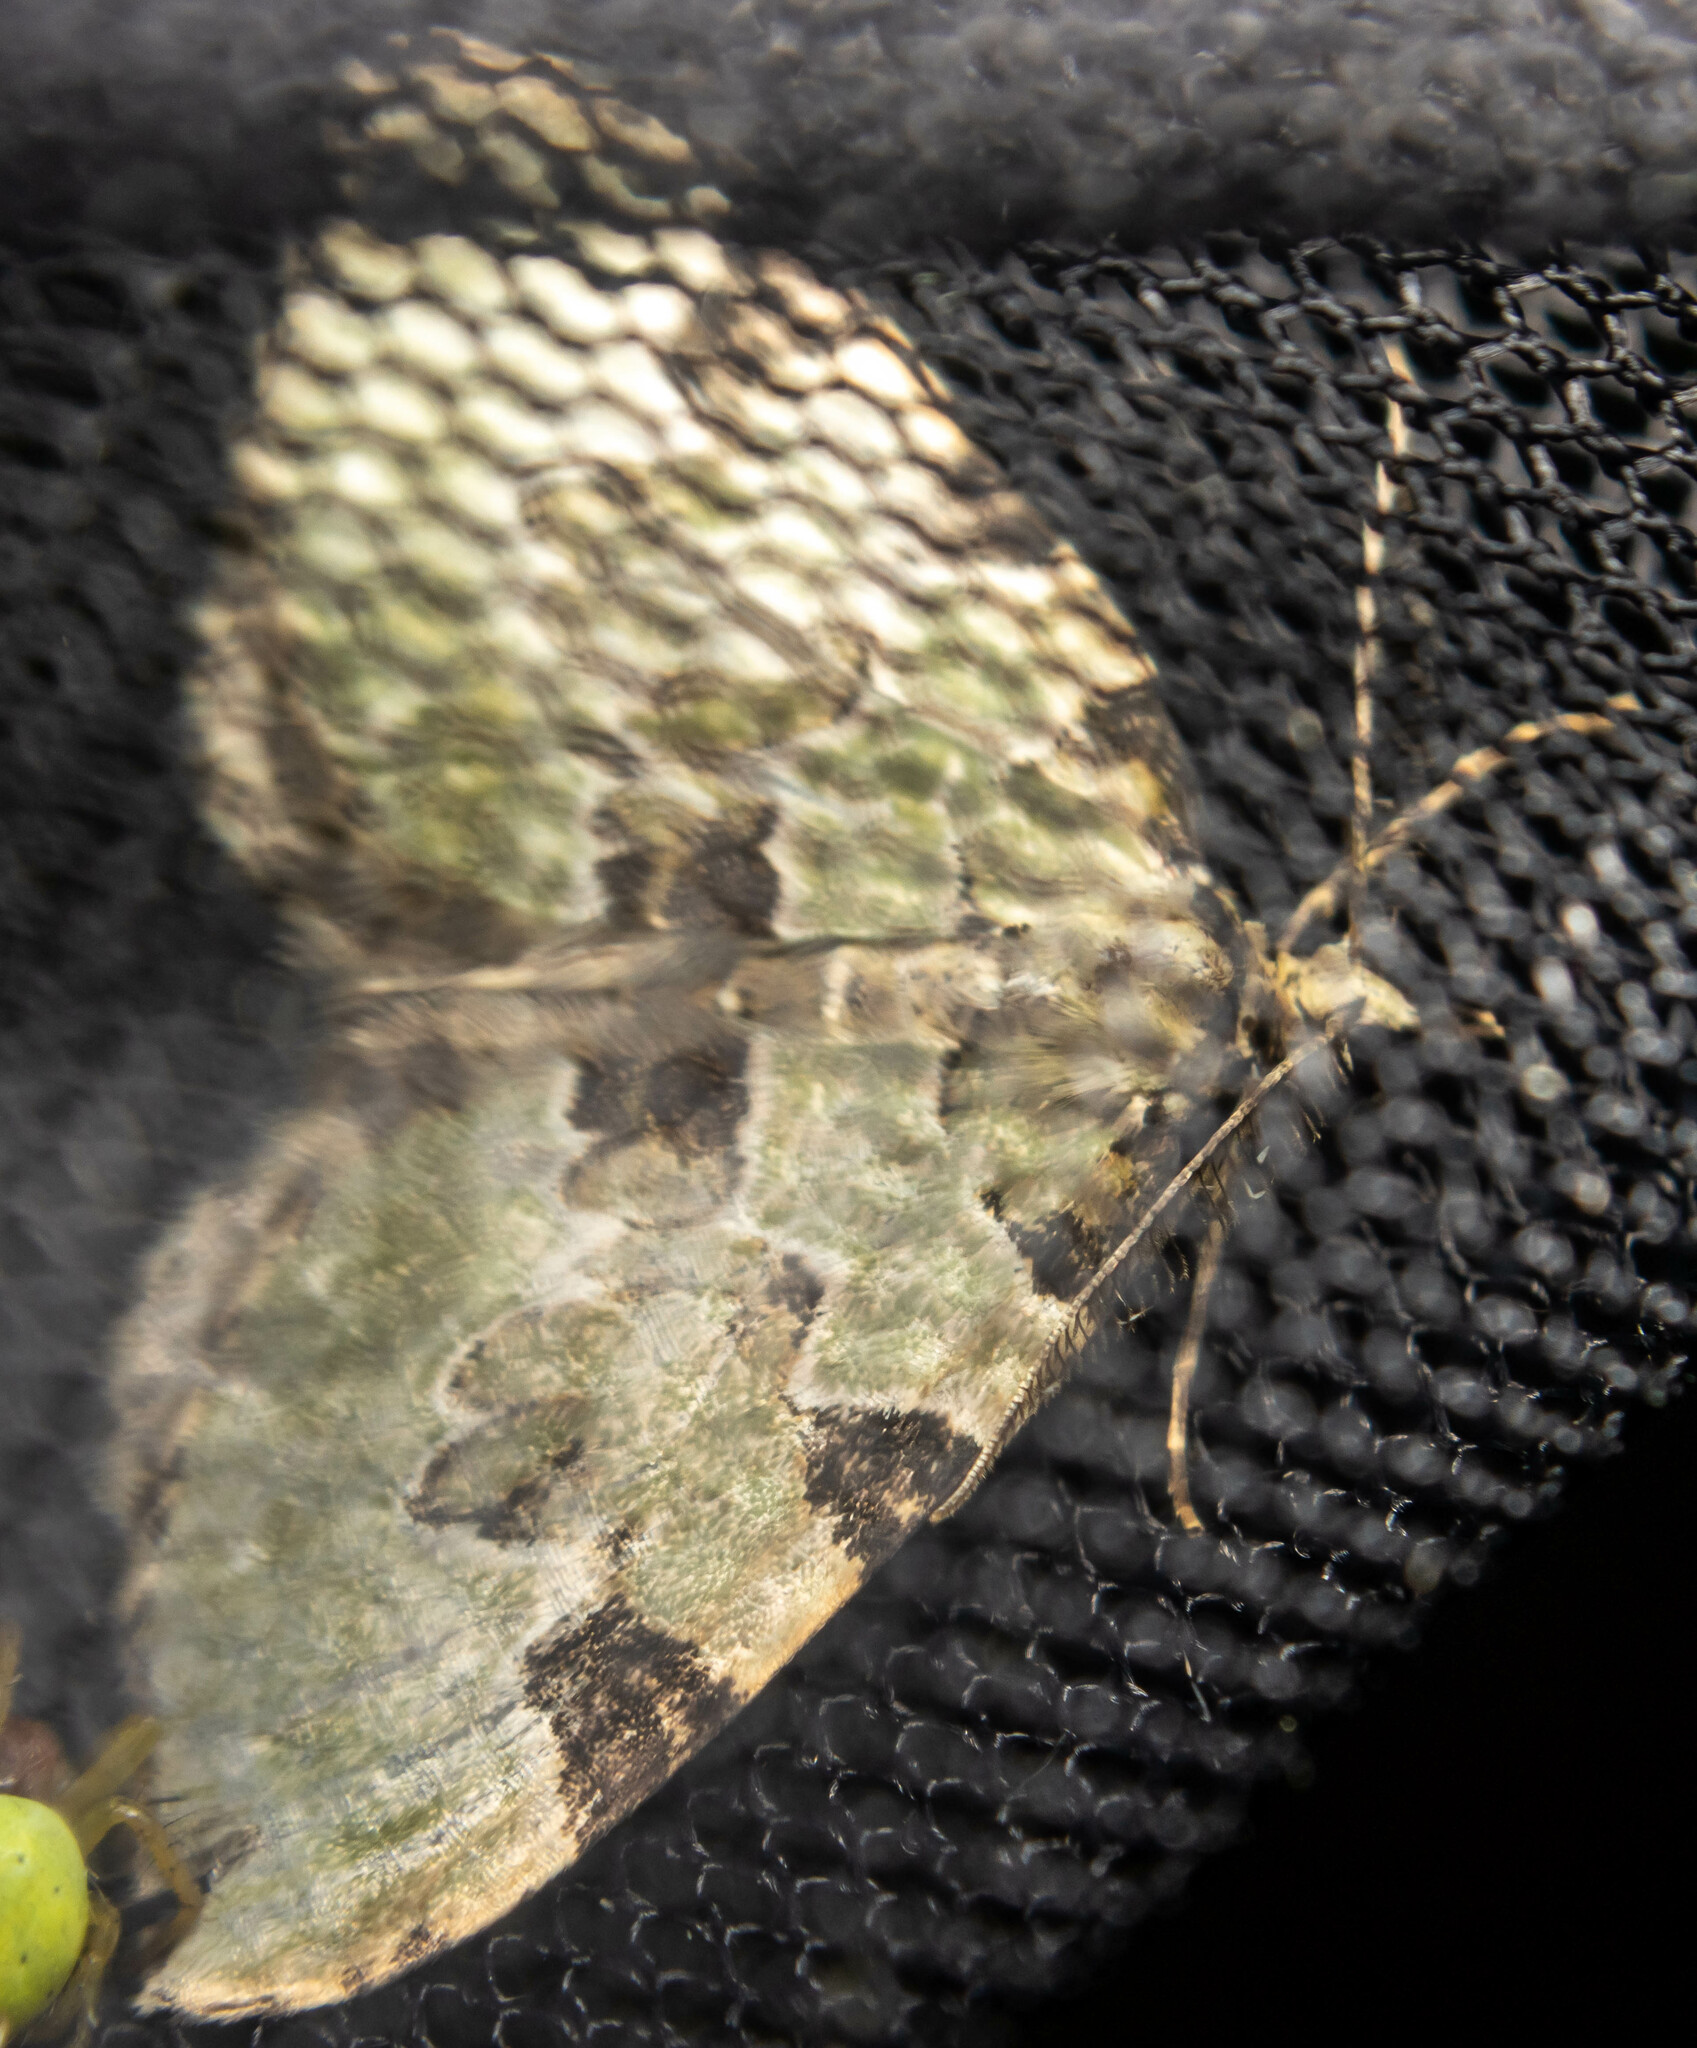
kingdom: Animalia
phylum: Arthropoda
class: Insecta
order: Lepidoptera
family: Geometridae
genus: Colostygia
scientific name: Colostygia pectinataria
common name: Green carpet
